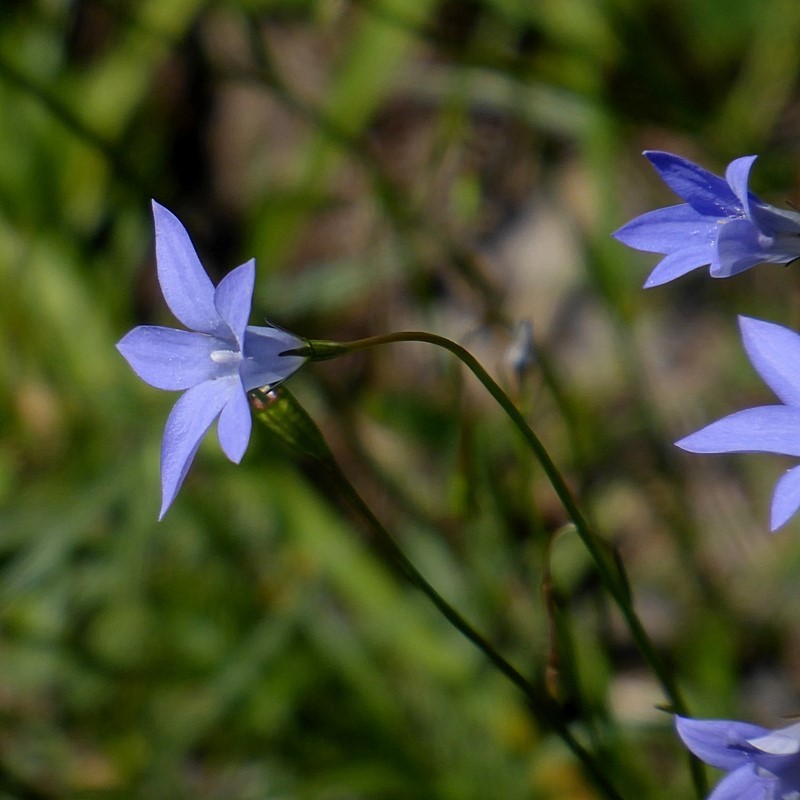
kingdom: Plantae
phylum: Tracheophyta
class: Magnoliopsida
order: Asterales
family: Campanulaceae
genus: Wahlenbergia
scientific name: Wahlenbergia capillaris
